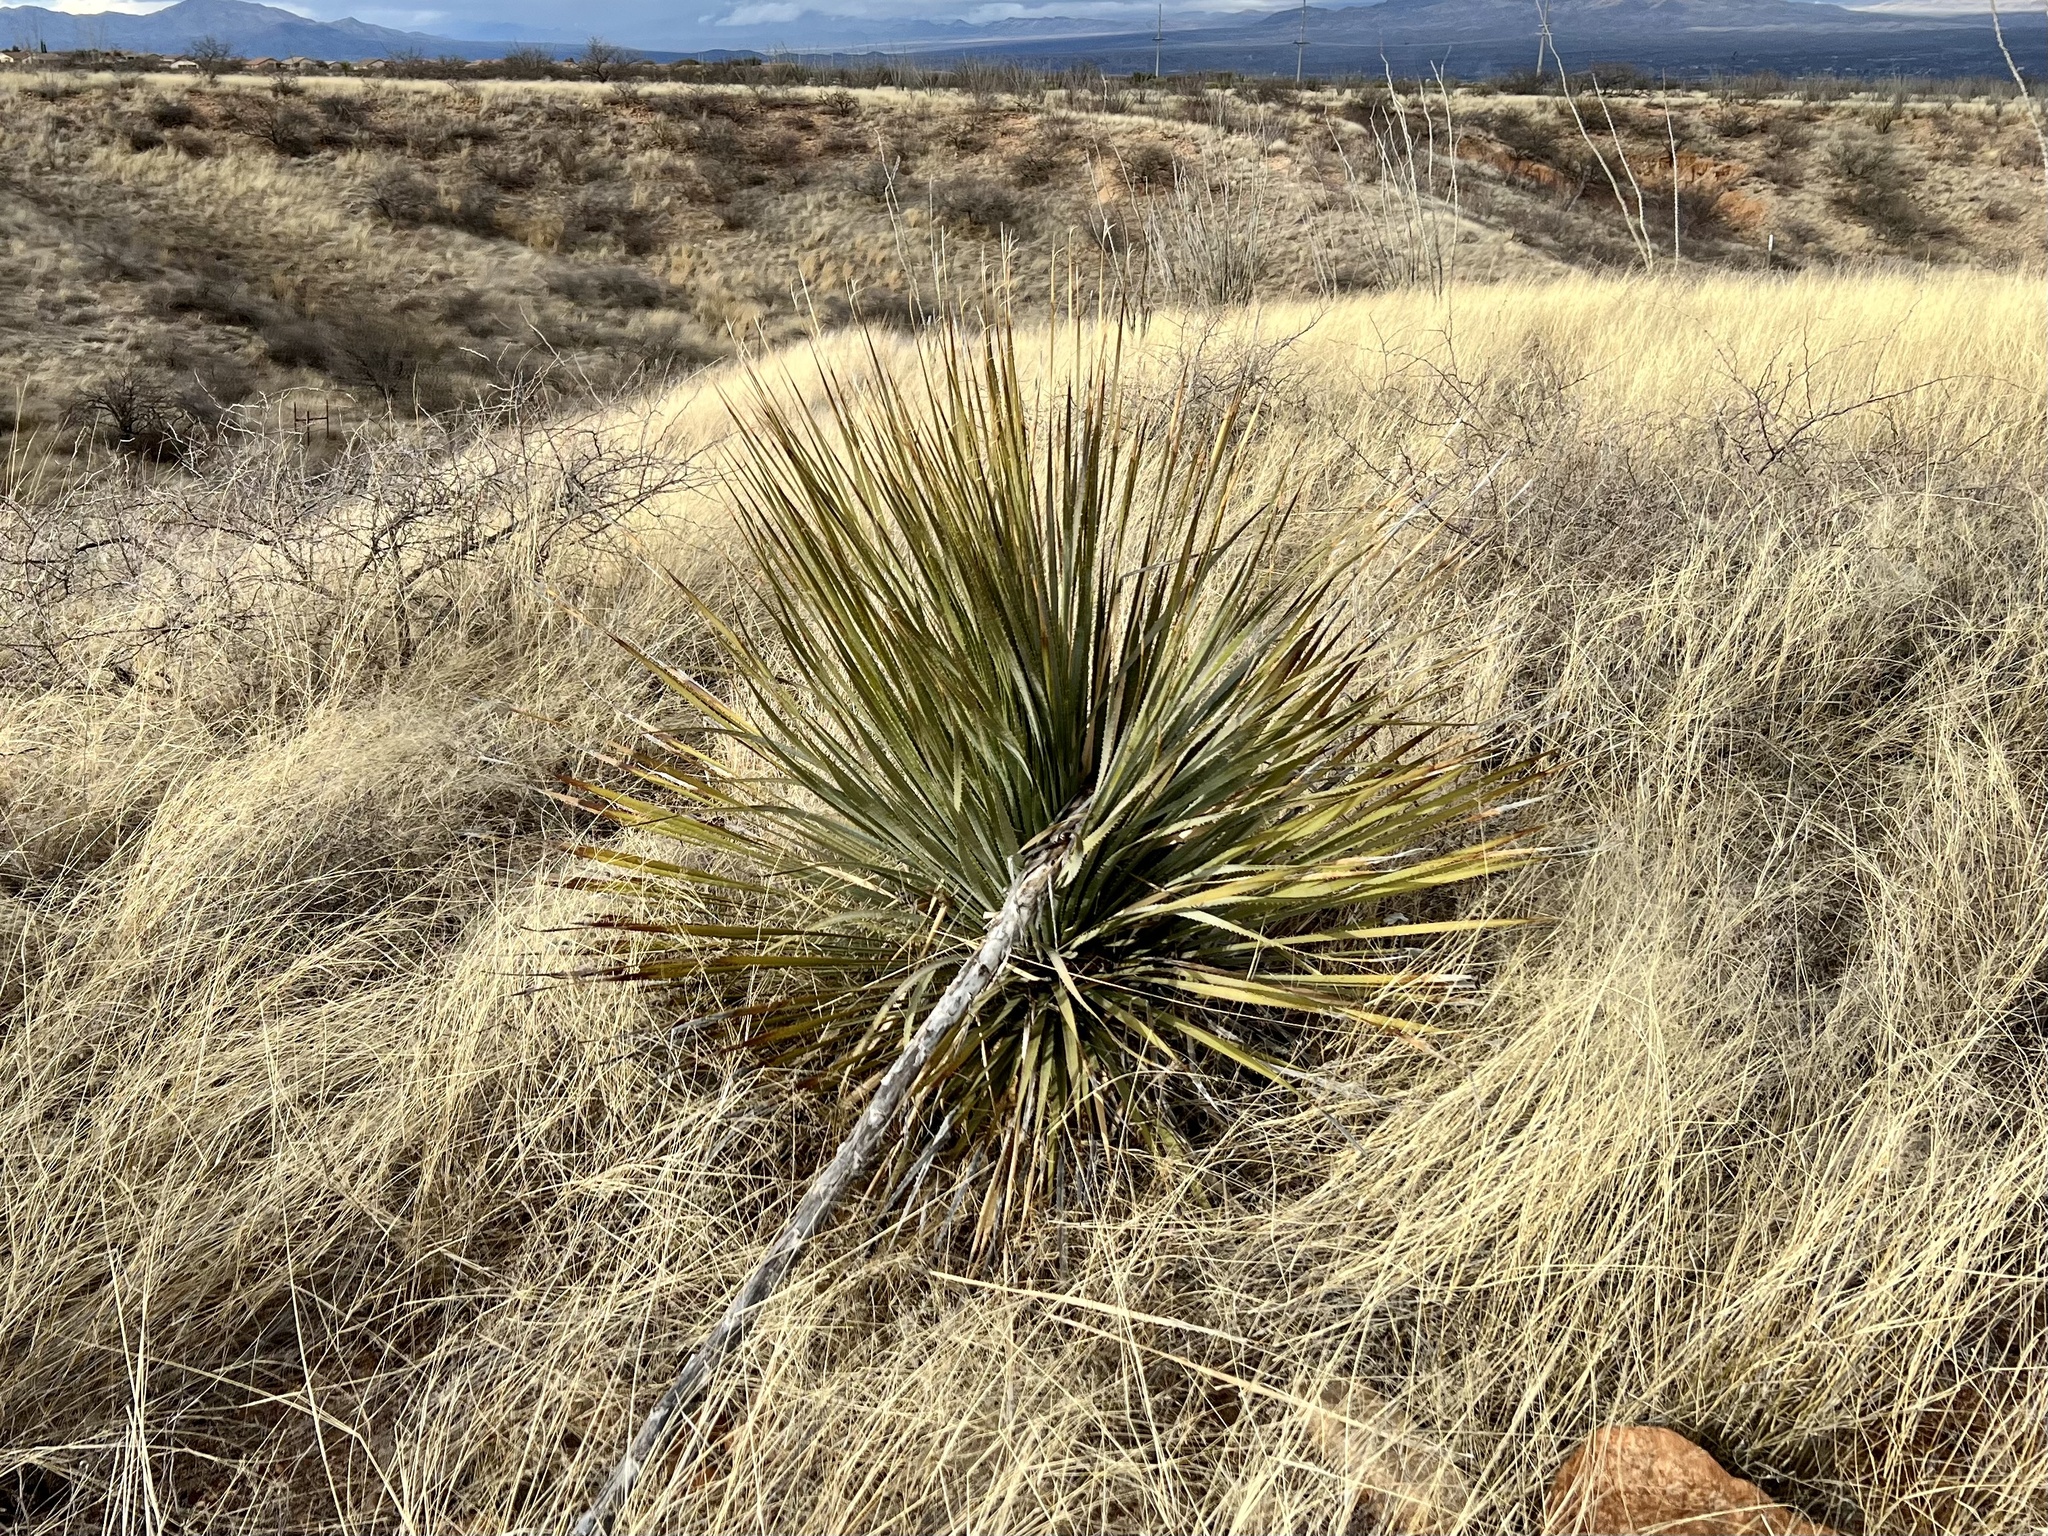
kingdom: Plantae
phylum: Tracheophyta
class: Liliopsida
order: Asparagales
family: Asparagaceae
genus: Dasylirion
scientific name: Dasylirion wheeleri
